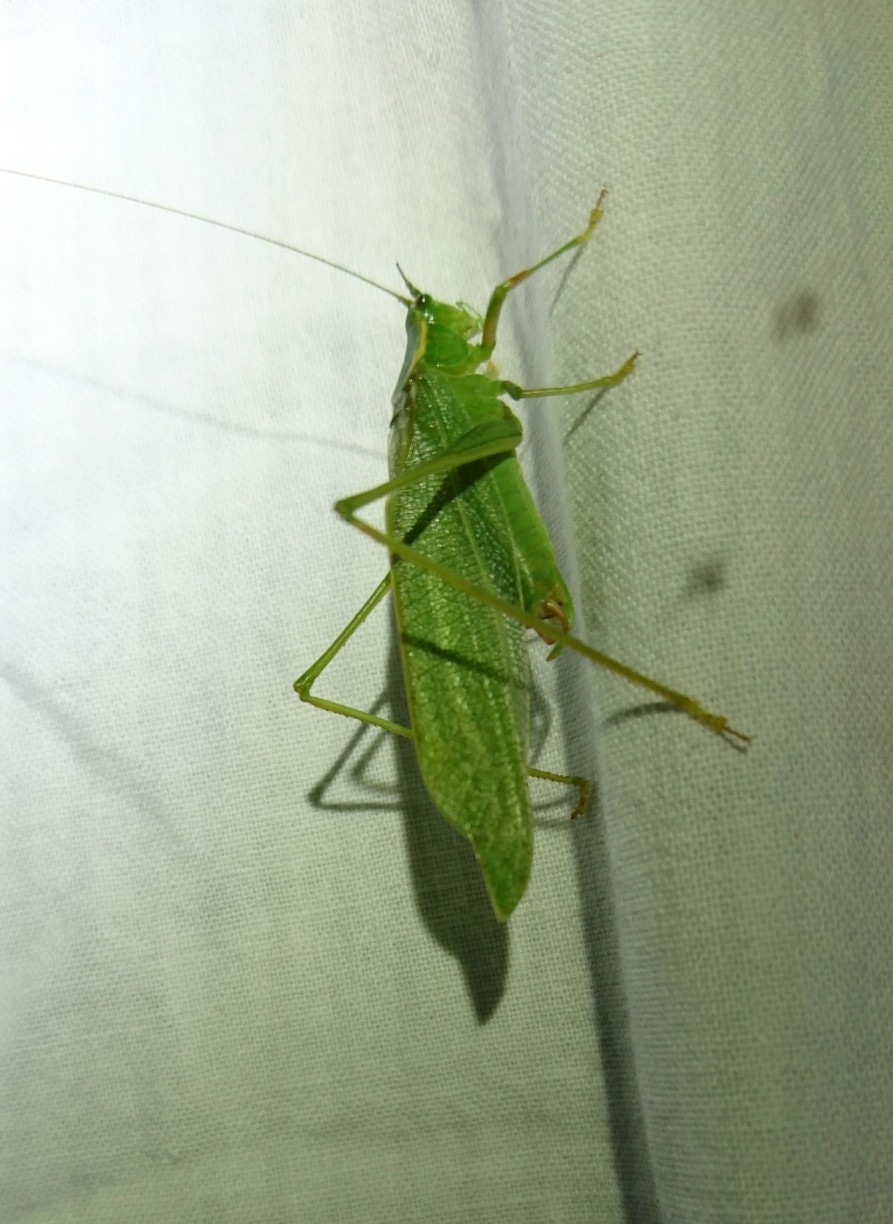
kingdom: Animalia
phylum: Arthropoda
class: Insecta
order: Orthoptera
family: Tettigoniidae
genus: Scudderia
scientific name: Scudderia septentrionalis
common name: Northern bush-katydid
